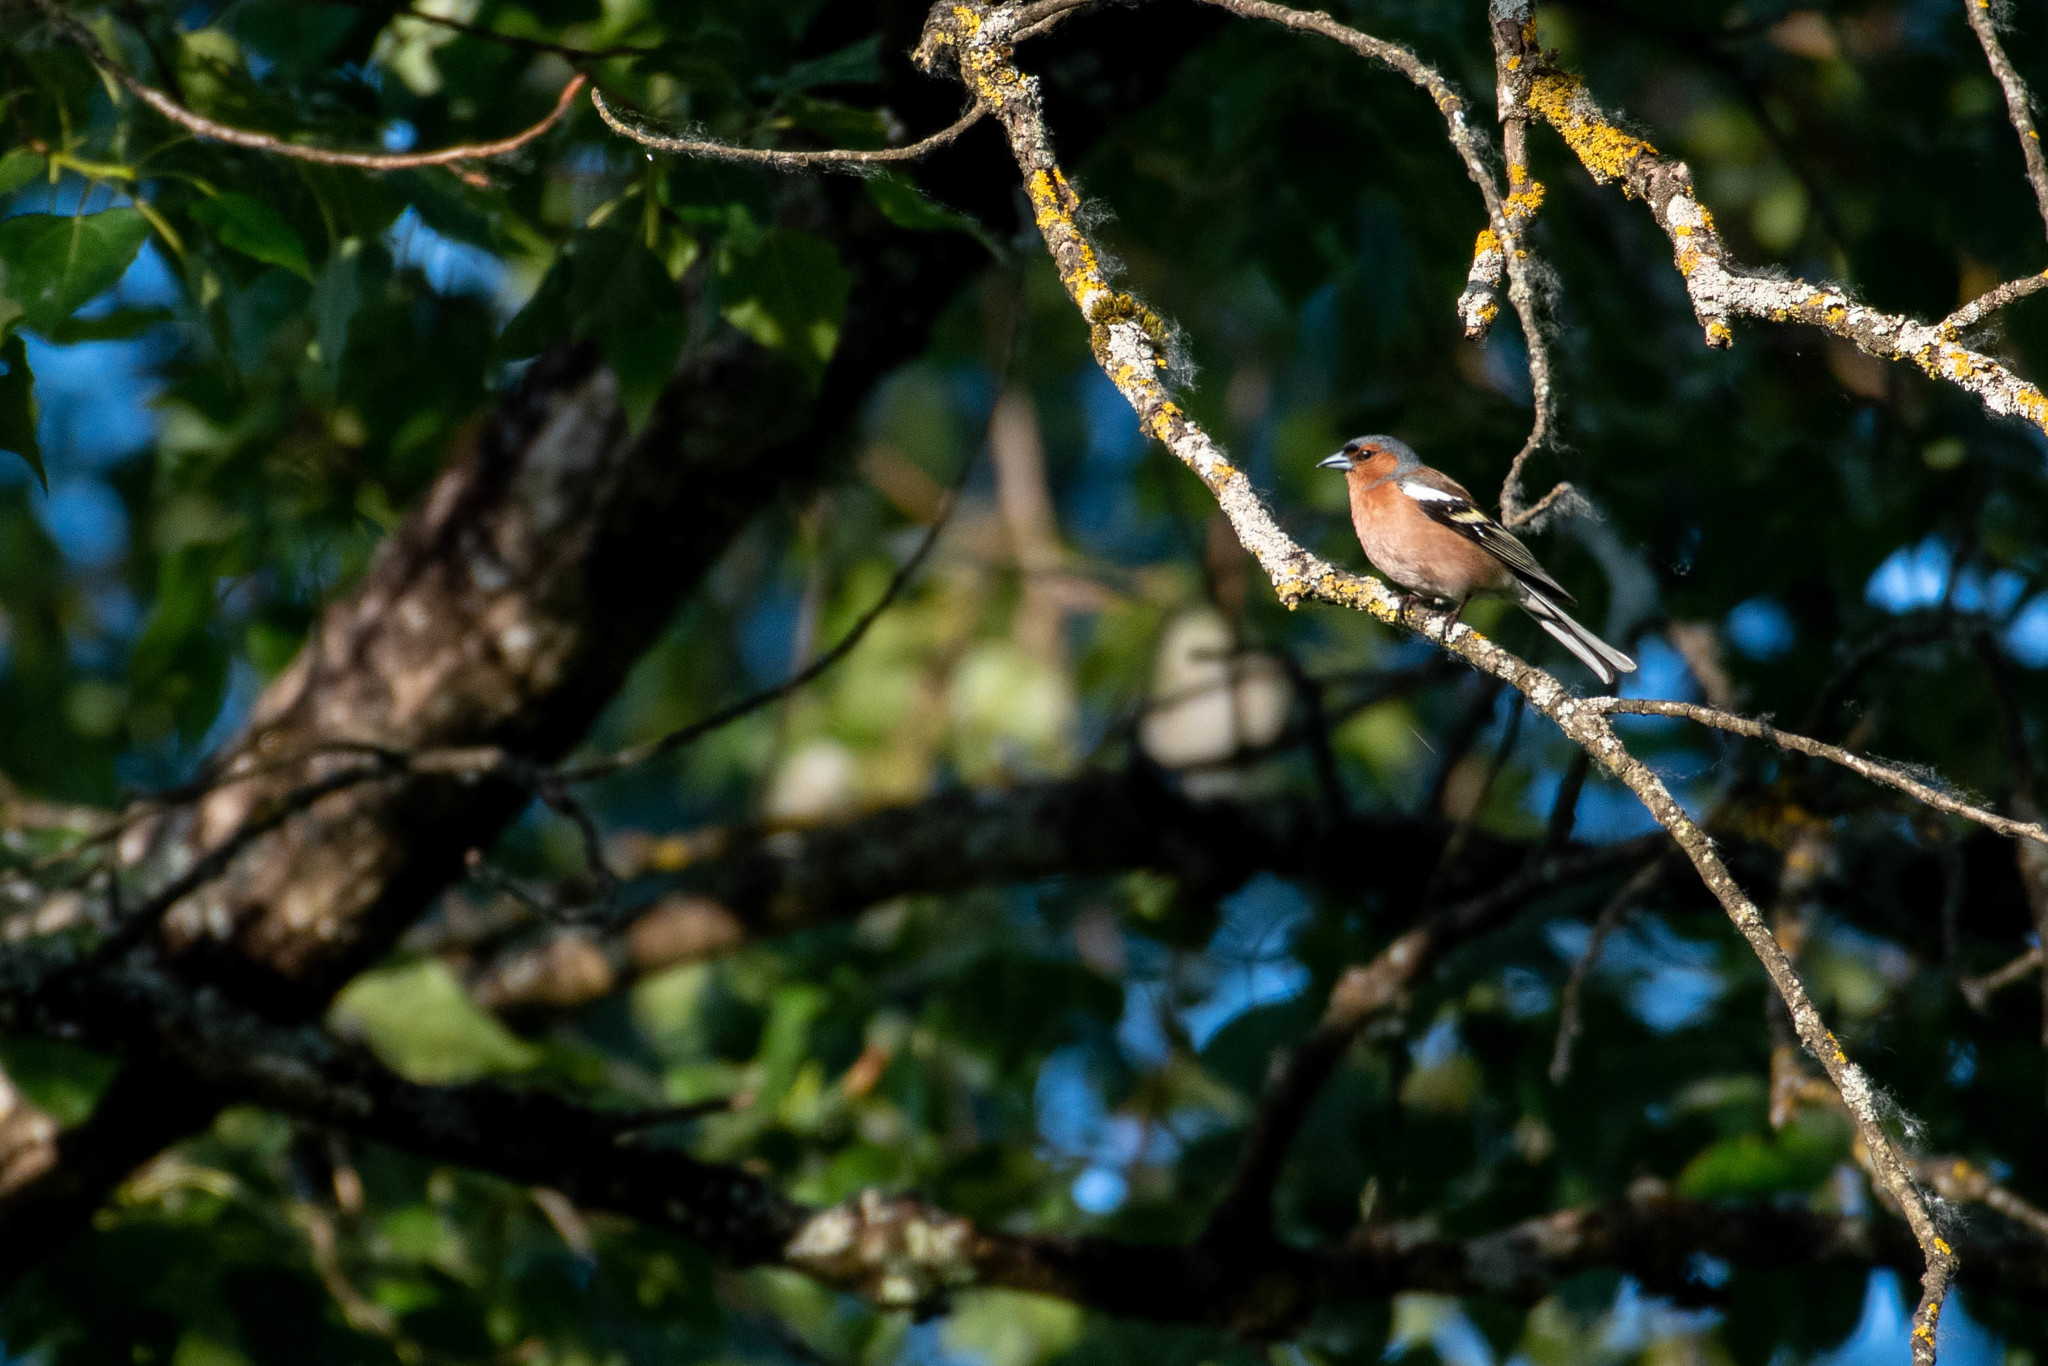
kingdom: Animalia
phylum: Chordata
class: Aves
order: Passeriformes
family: Fringillidae
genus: Fringilla
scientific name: Fringilla coelebs
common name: Common chaffinch
